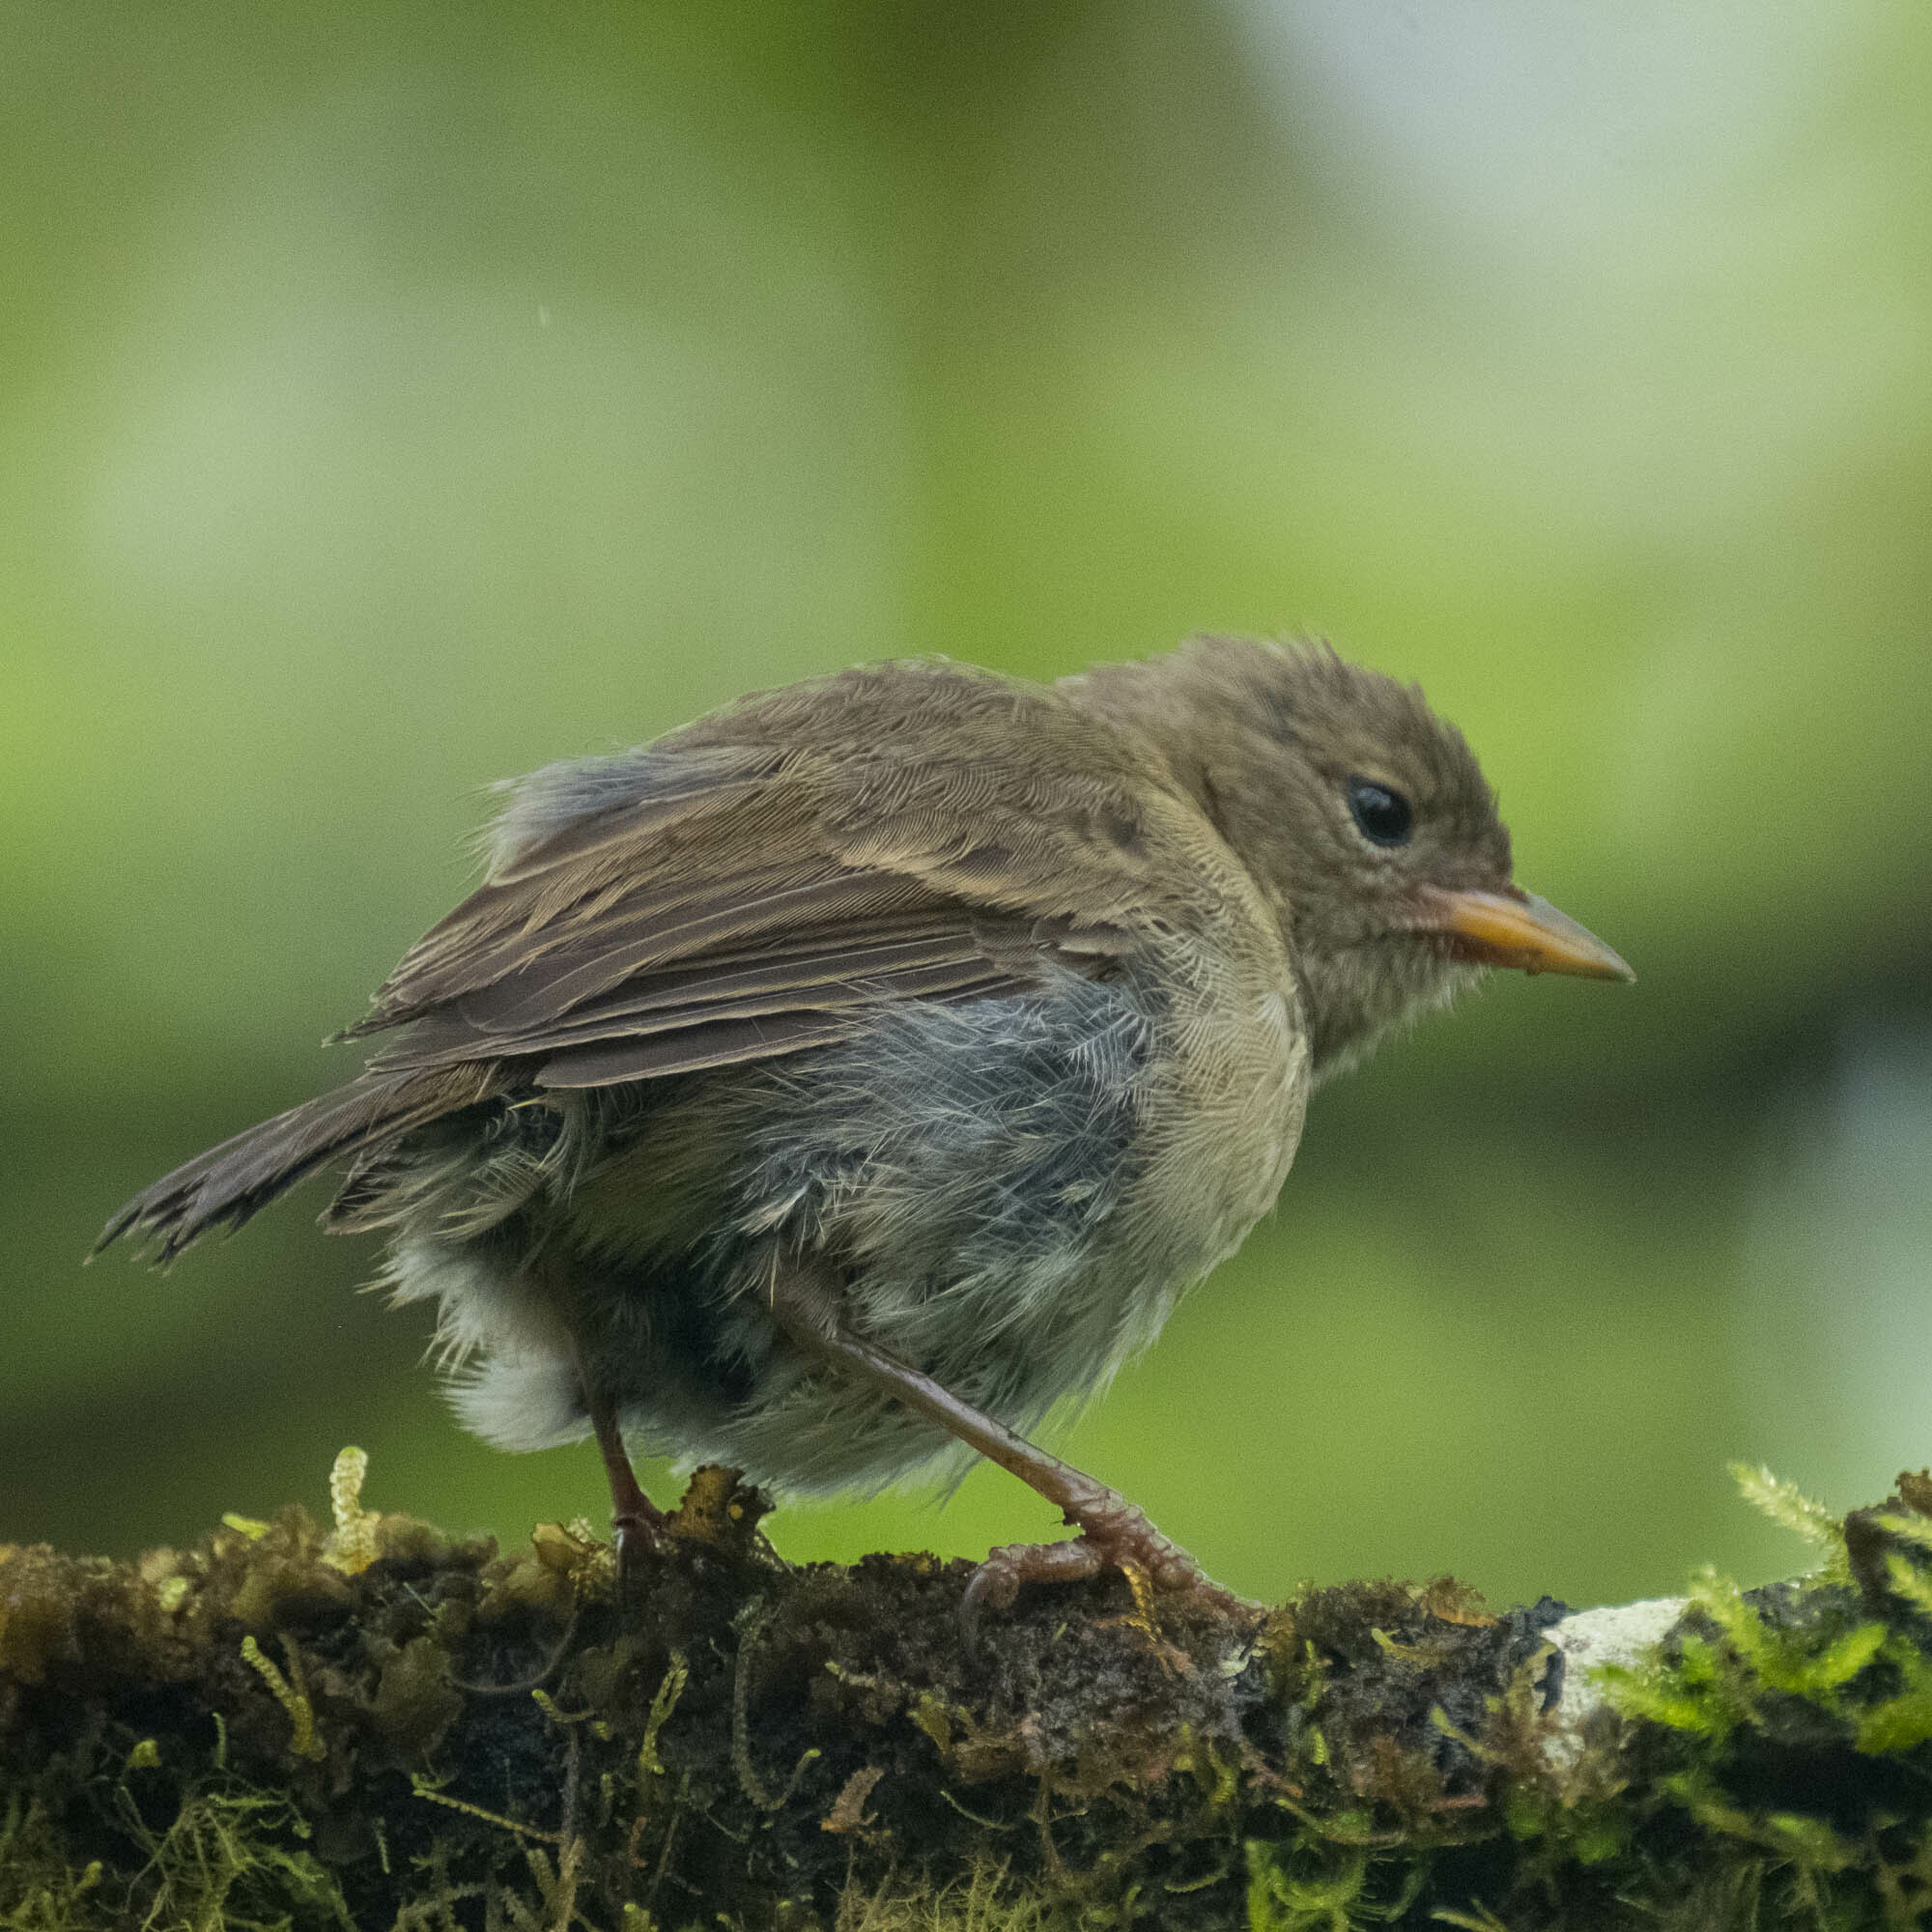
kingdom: Animalia
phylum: Chordata
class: Aves
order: Passeriformes
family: Thraupidae
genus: Certhidea
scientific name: Certhidea olivacea
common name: Green warbler-finch
